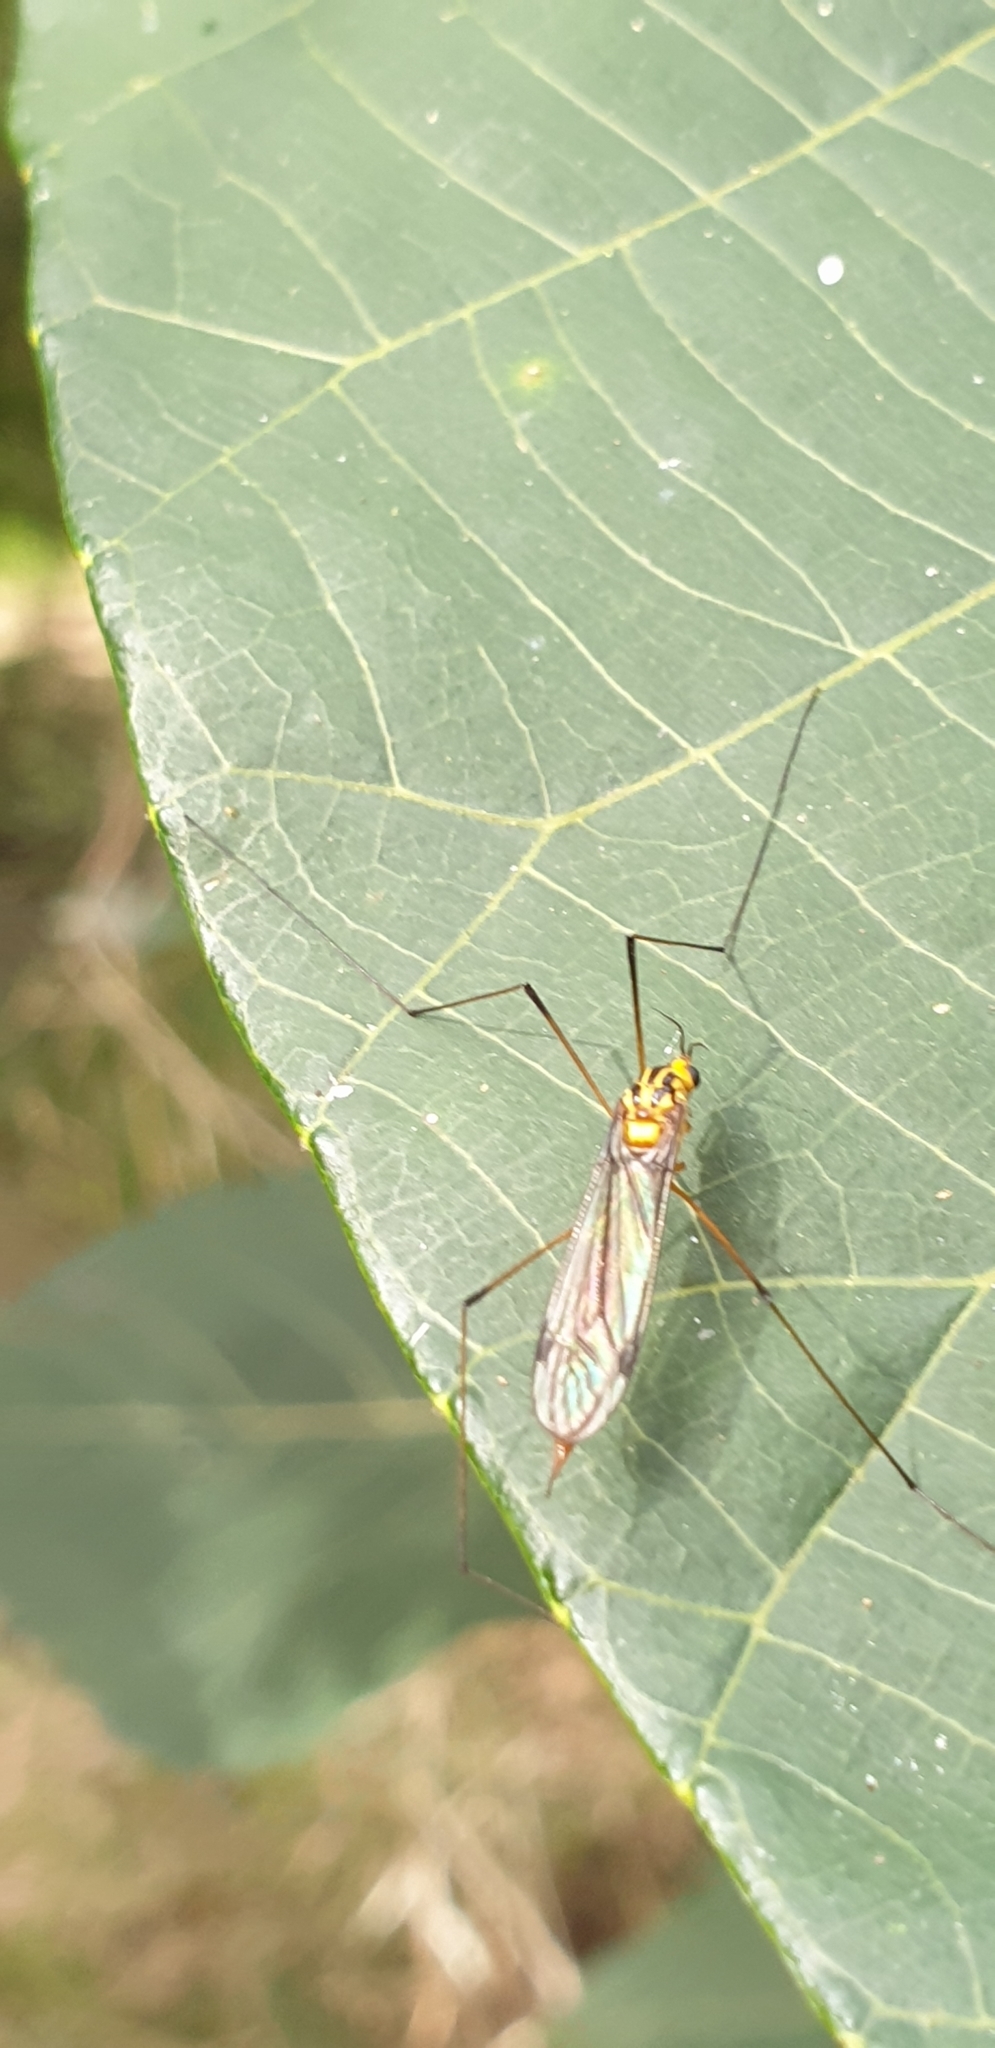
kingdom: Animalia
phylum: Arthropoda
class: Insecta
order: Diptera
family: Tipulidae
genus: Nephrotoma
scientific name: Nephrotoma australasiae
